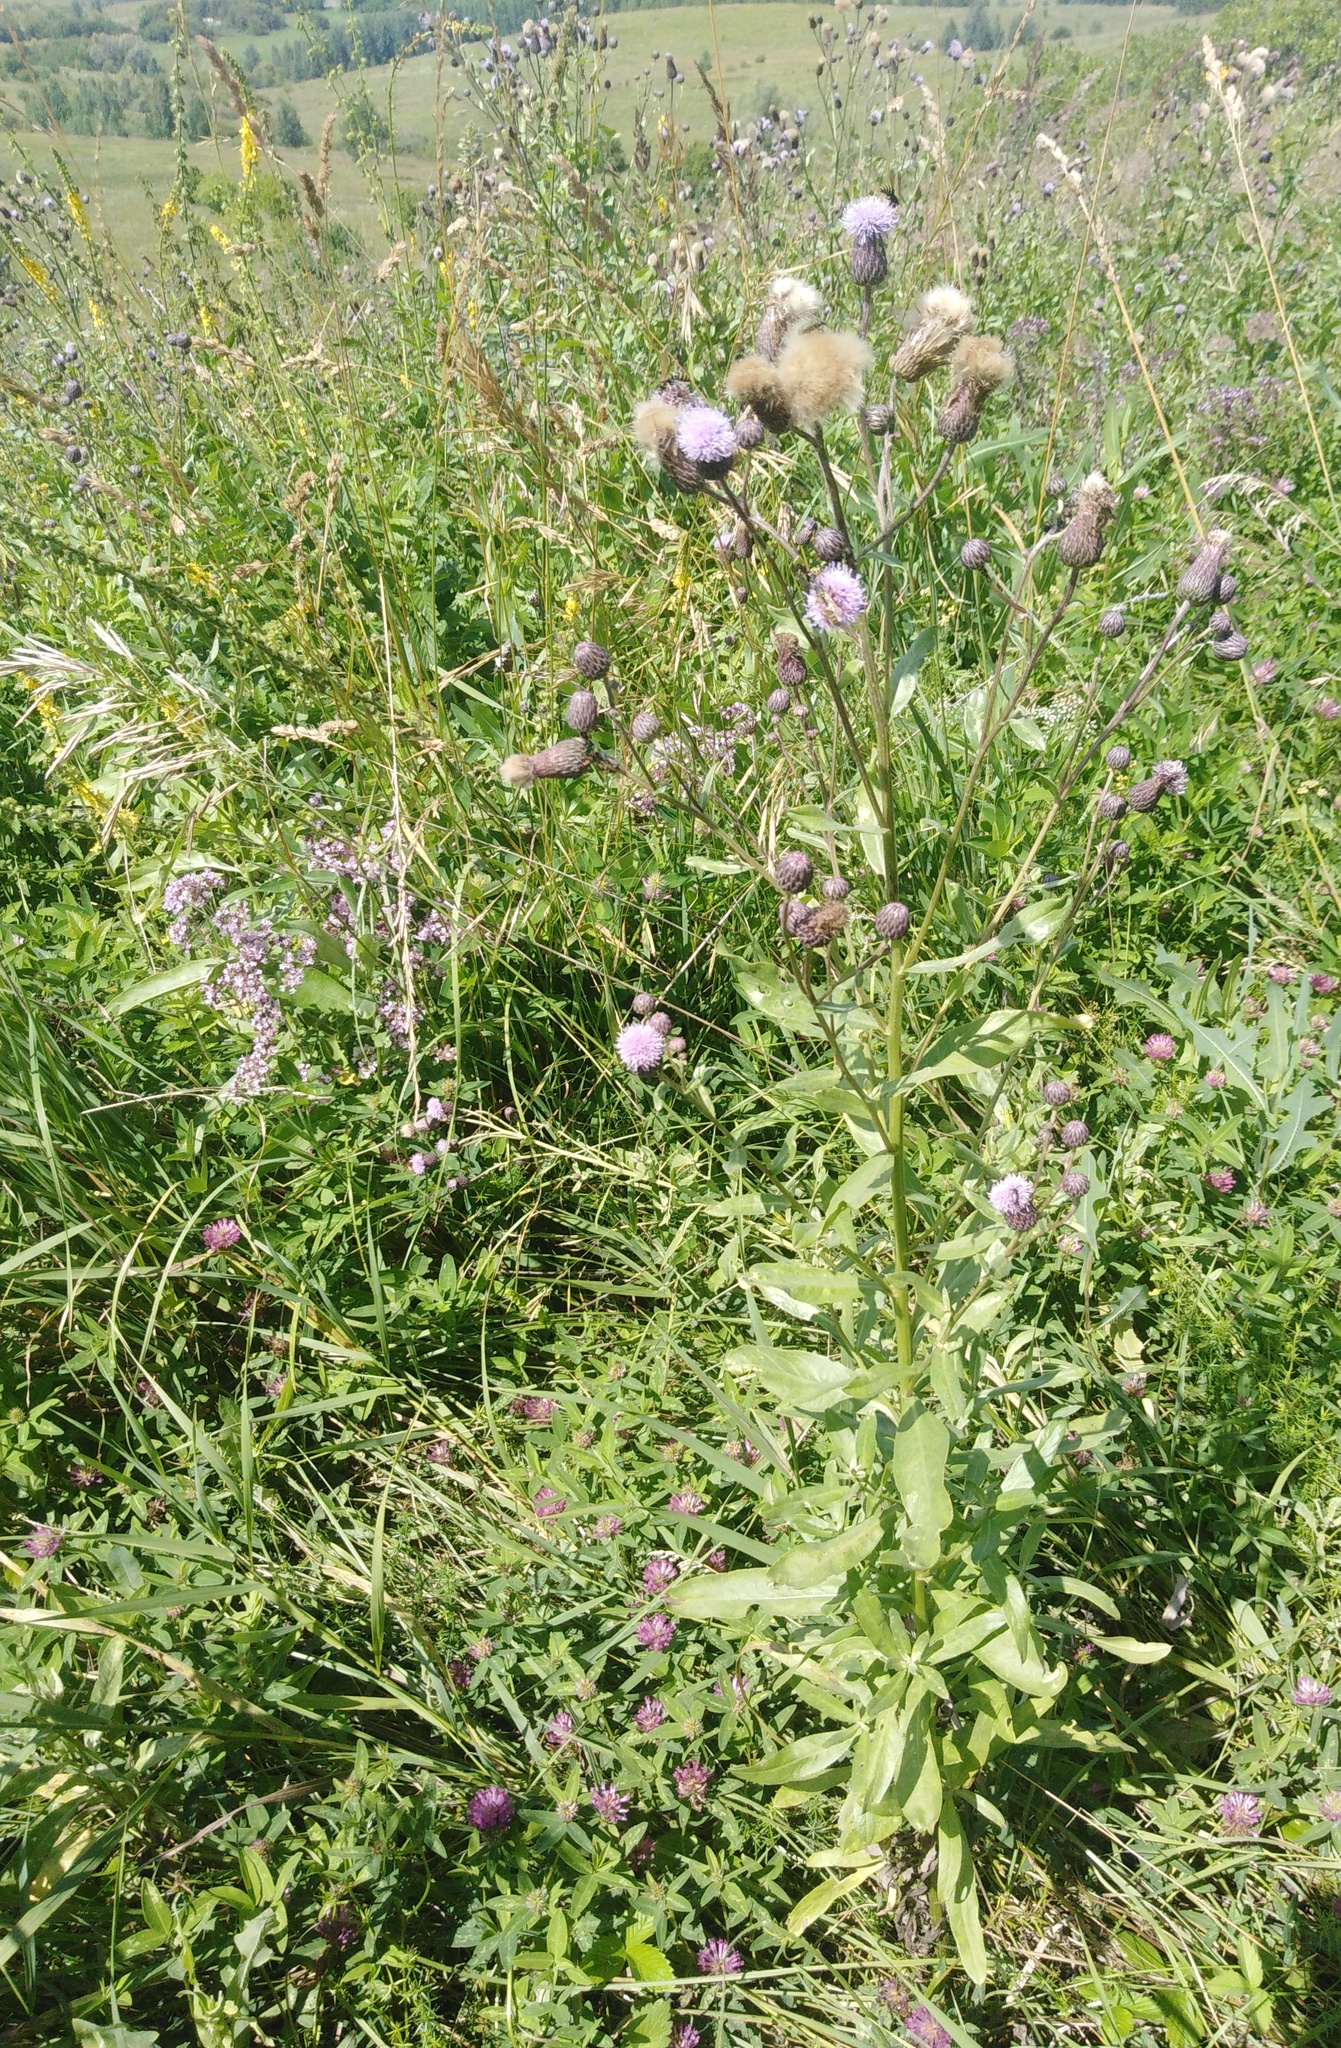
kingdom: Plantae
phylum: Tracheophyta
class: Magnoliopsida
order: Asterales
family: Asteraceae
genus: Cirsium
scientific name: Cirsium arvense
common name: Creeping thistle
